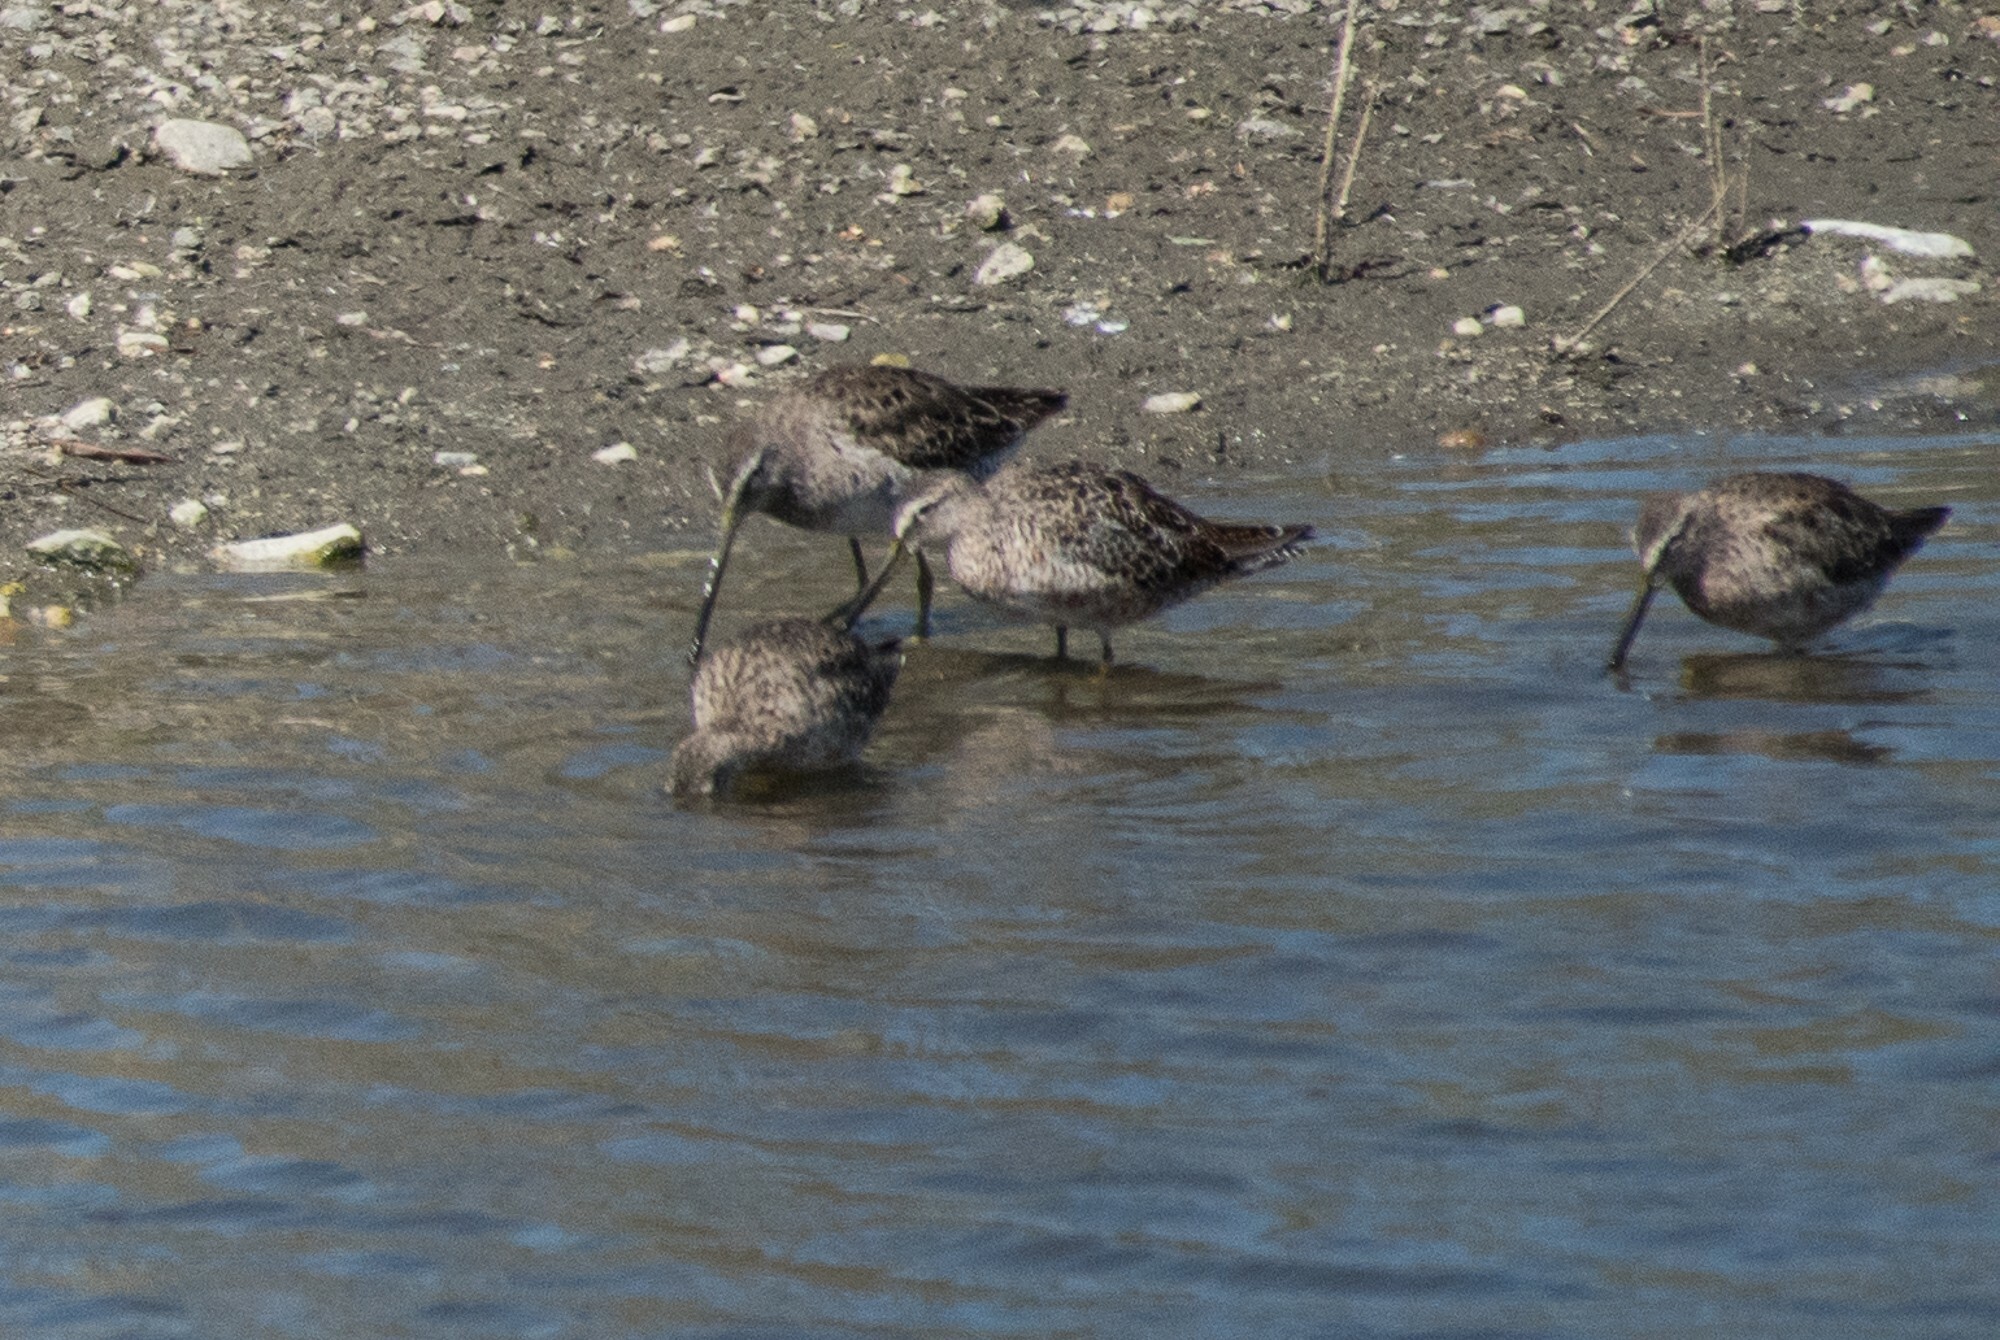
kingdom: Animalia
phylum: Chordata
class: Aves
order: Charadriiformes
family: Scolopacidae
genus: Limnodromus
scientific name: Limnodromus scolopaceus
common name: Long-billed dowitcher
